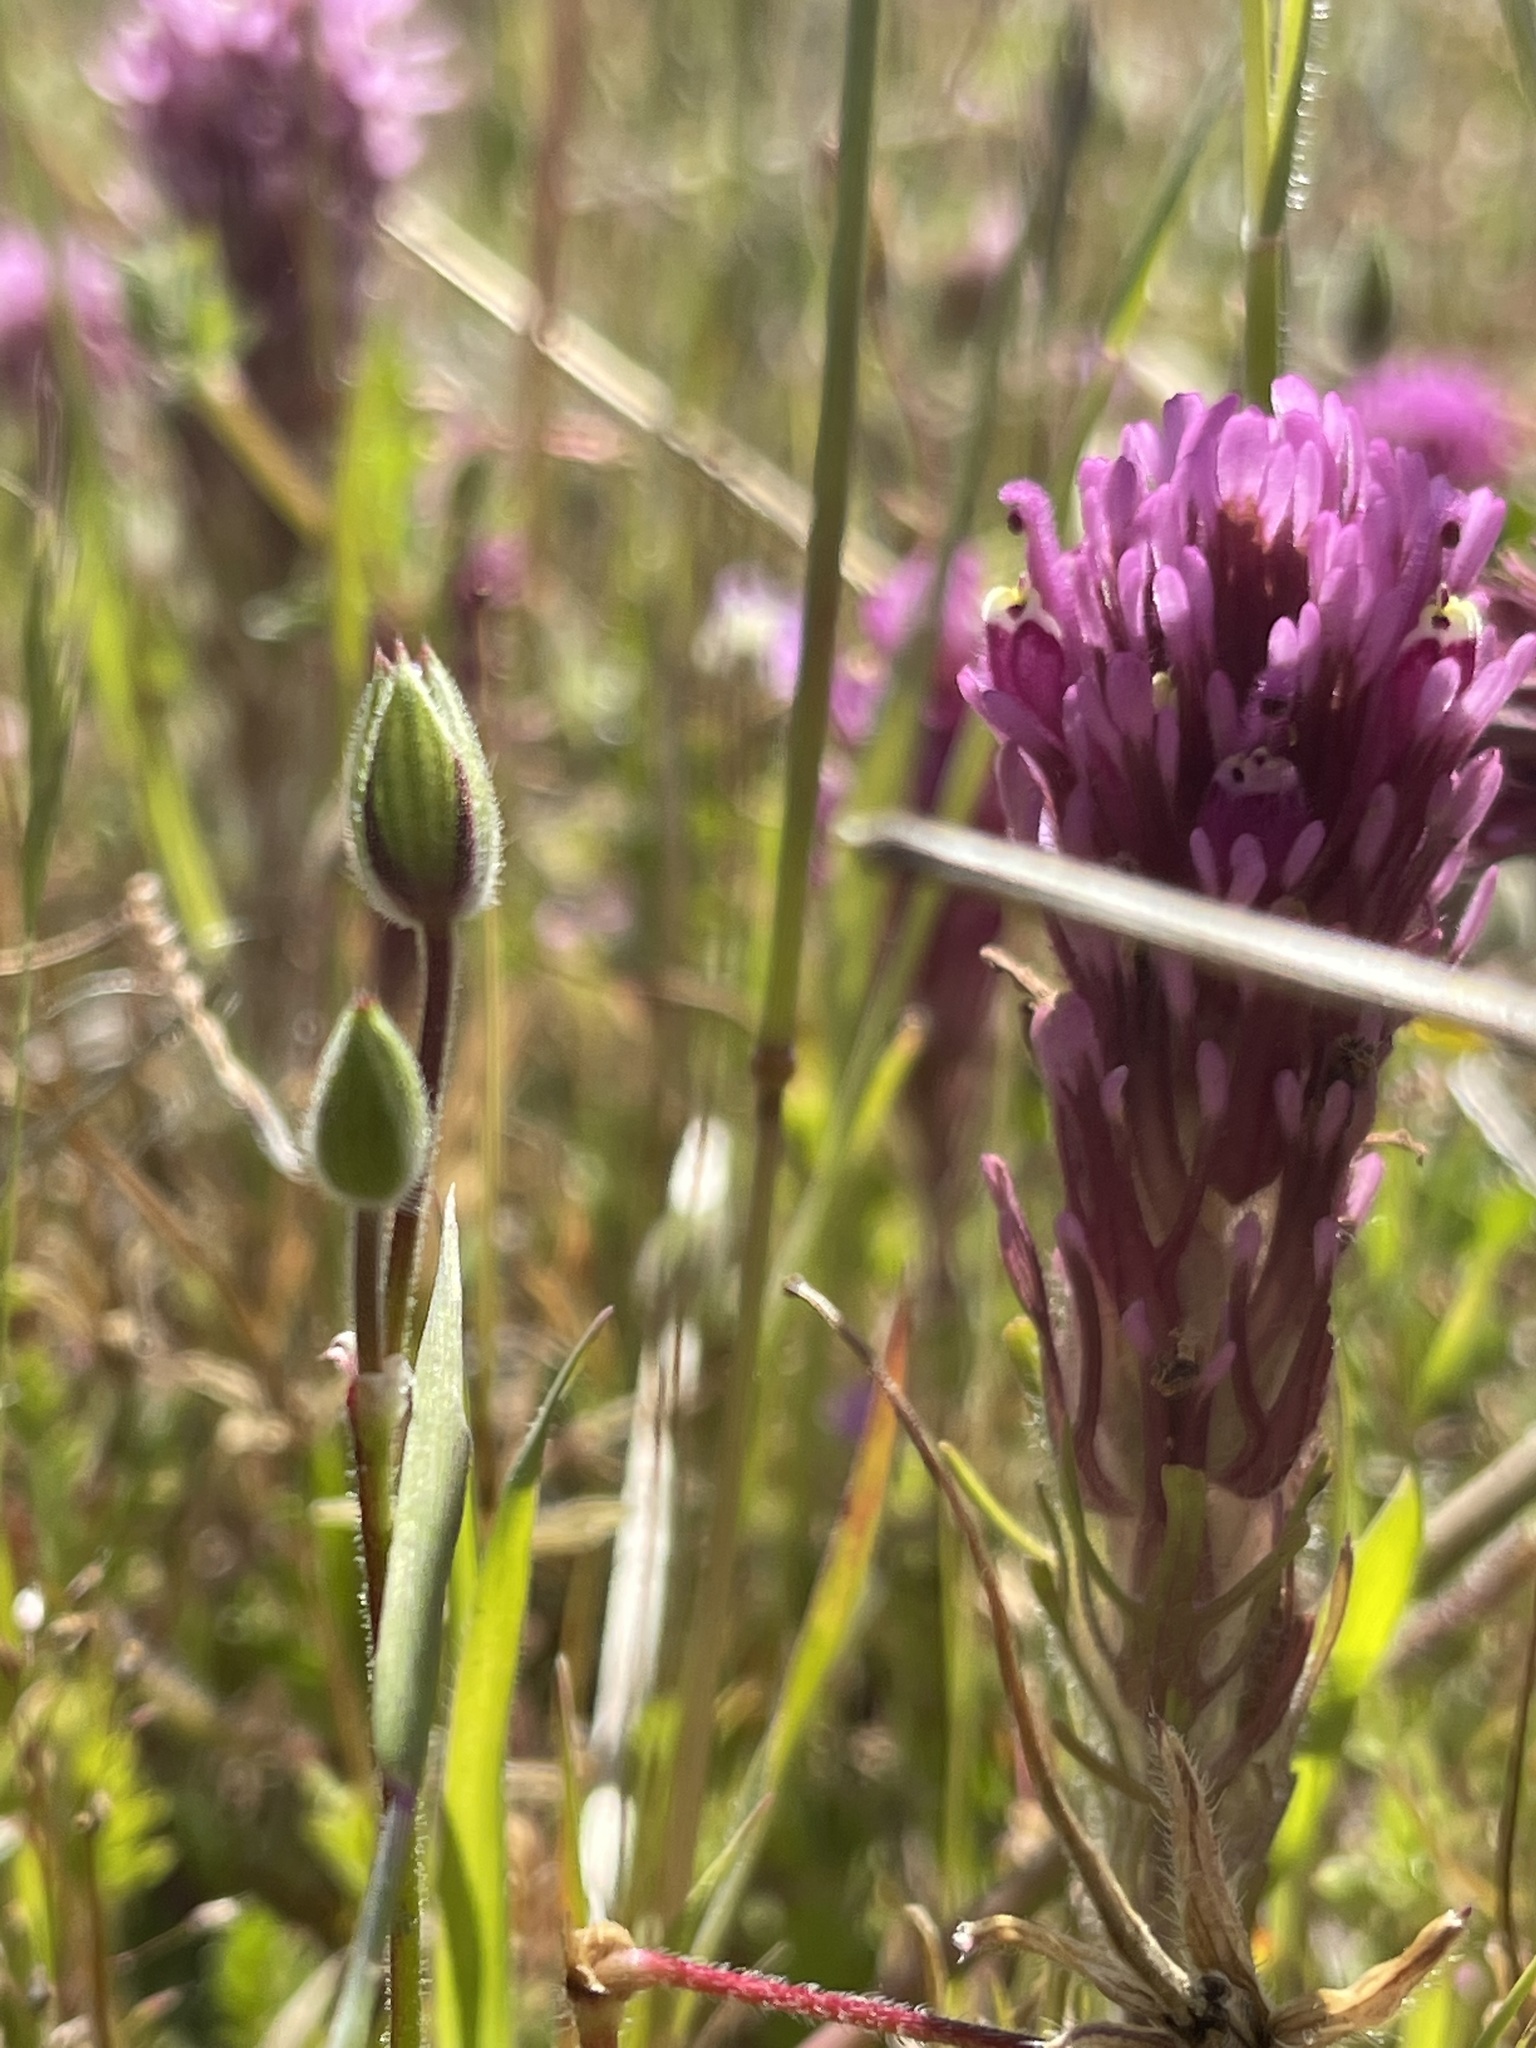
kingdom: Plantae
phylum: Tracheophyta
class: Magnoliopsida
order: Lamiales
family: Orobanchaceae
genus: Castilleja
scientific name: Castilleja exserta
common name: Purple owl-clover
